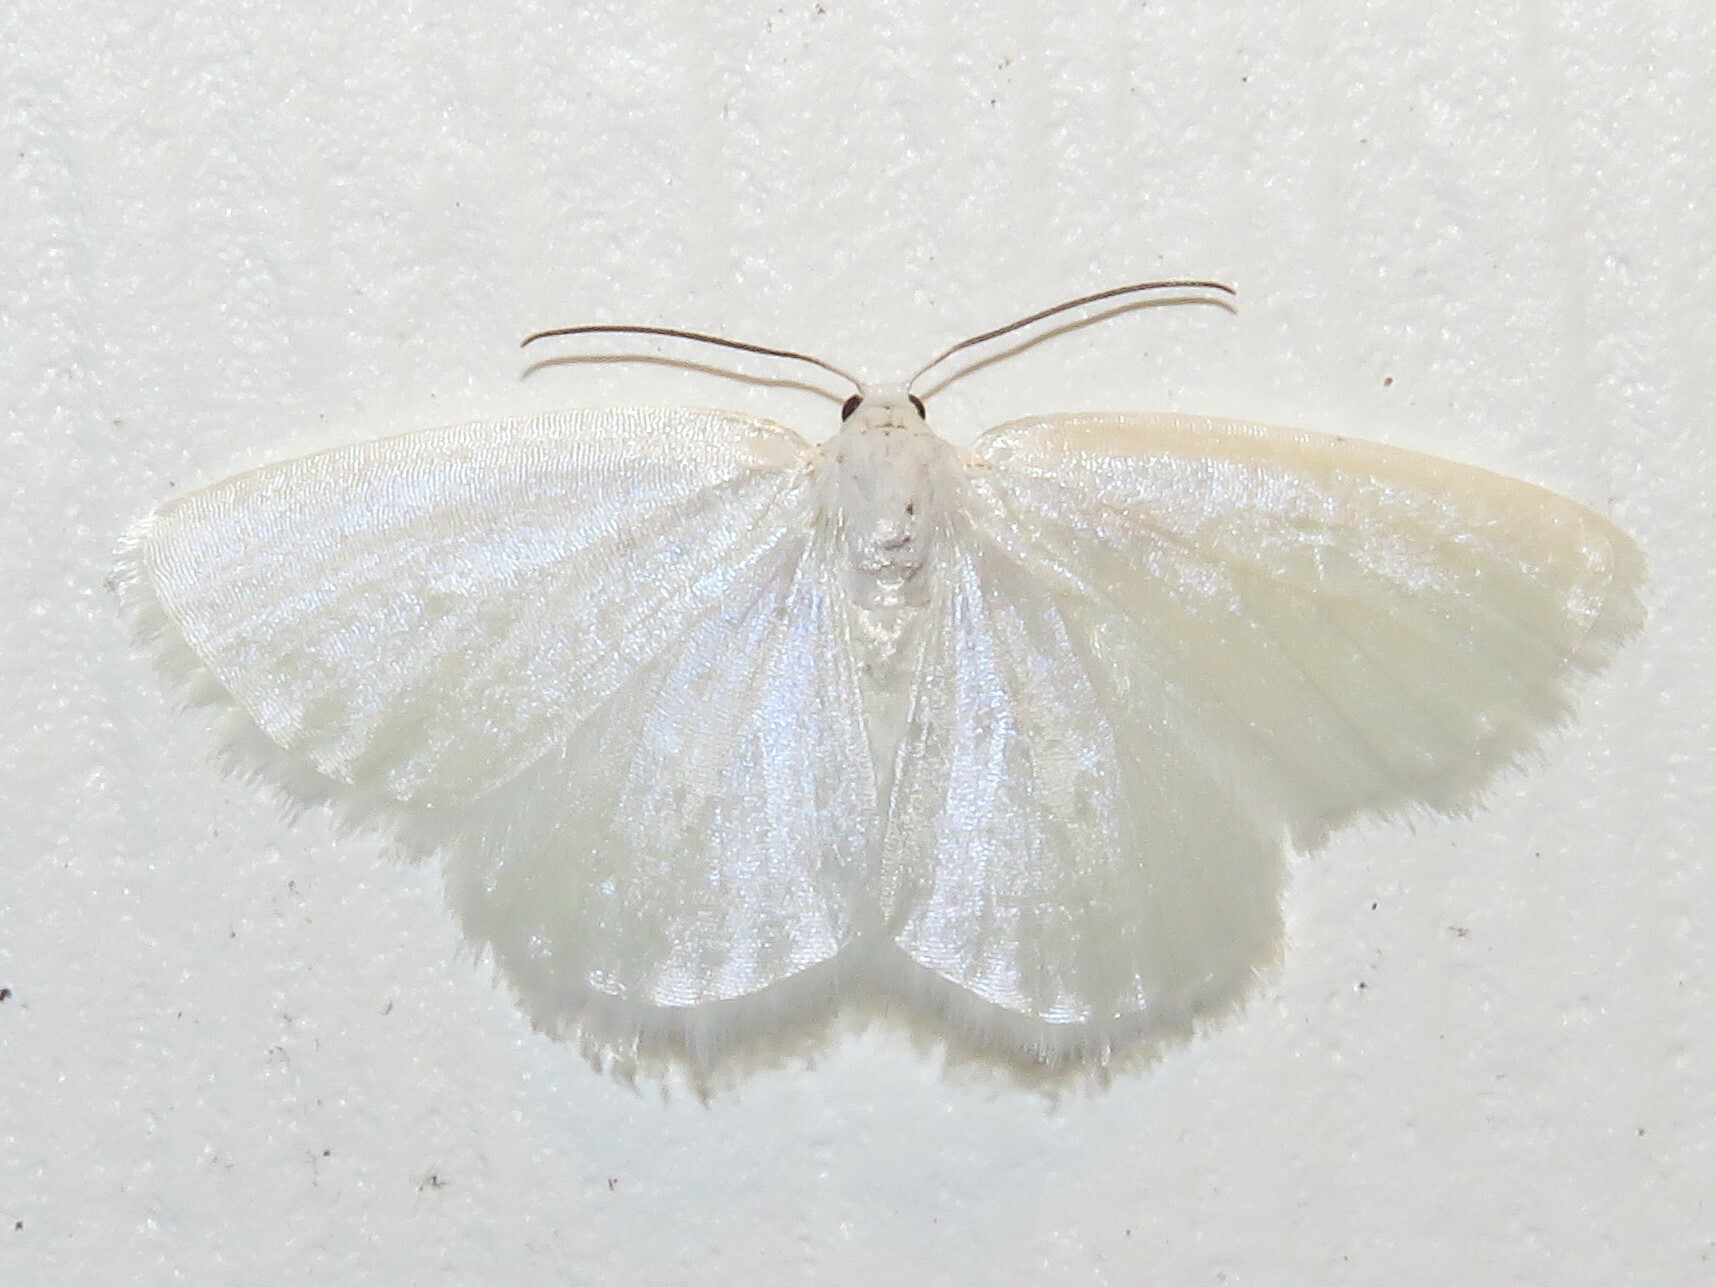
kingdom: Animalia
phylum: Arthropoda
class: Insecta
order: Lepidoptera
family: Geometridae
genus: Lomographa
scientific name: Lomographa vestaliata
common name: White spring moth
